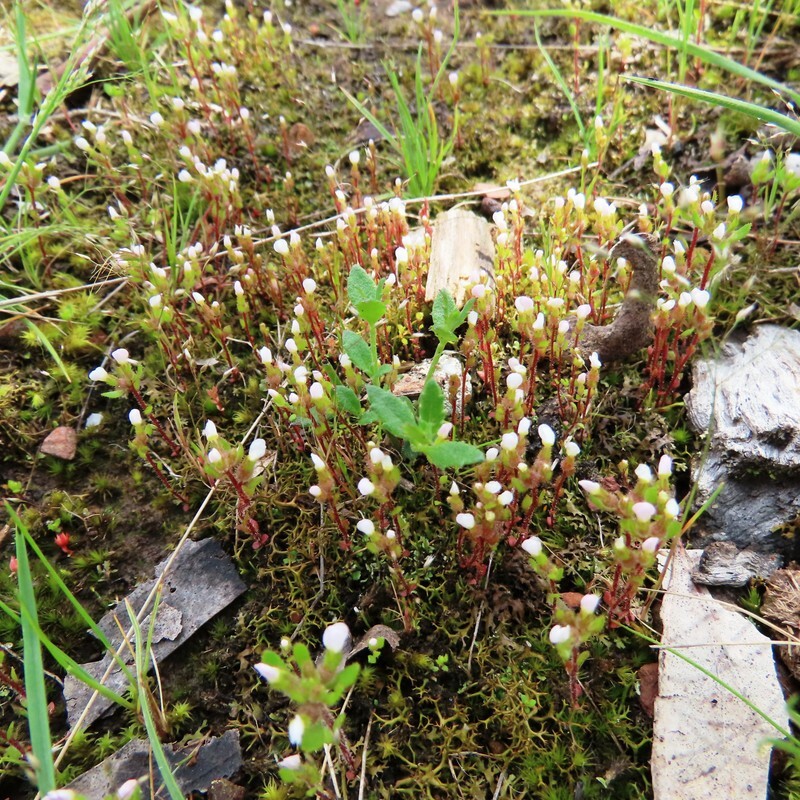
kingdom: Plantae
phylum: Tracheophyta
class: Magnoliopsida
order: Asterales
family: Stylidiaceae
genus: Levenhookia
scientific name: Levenhookia dubia
